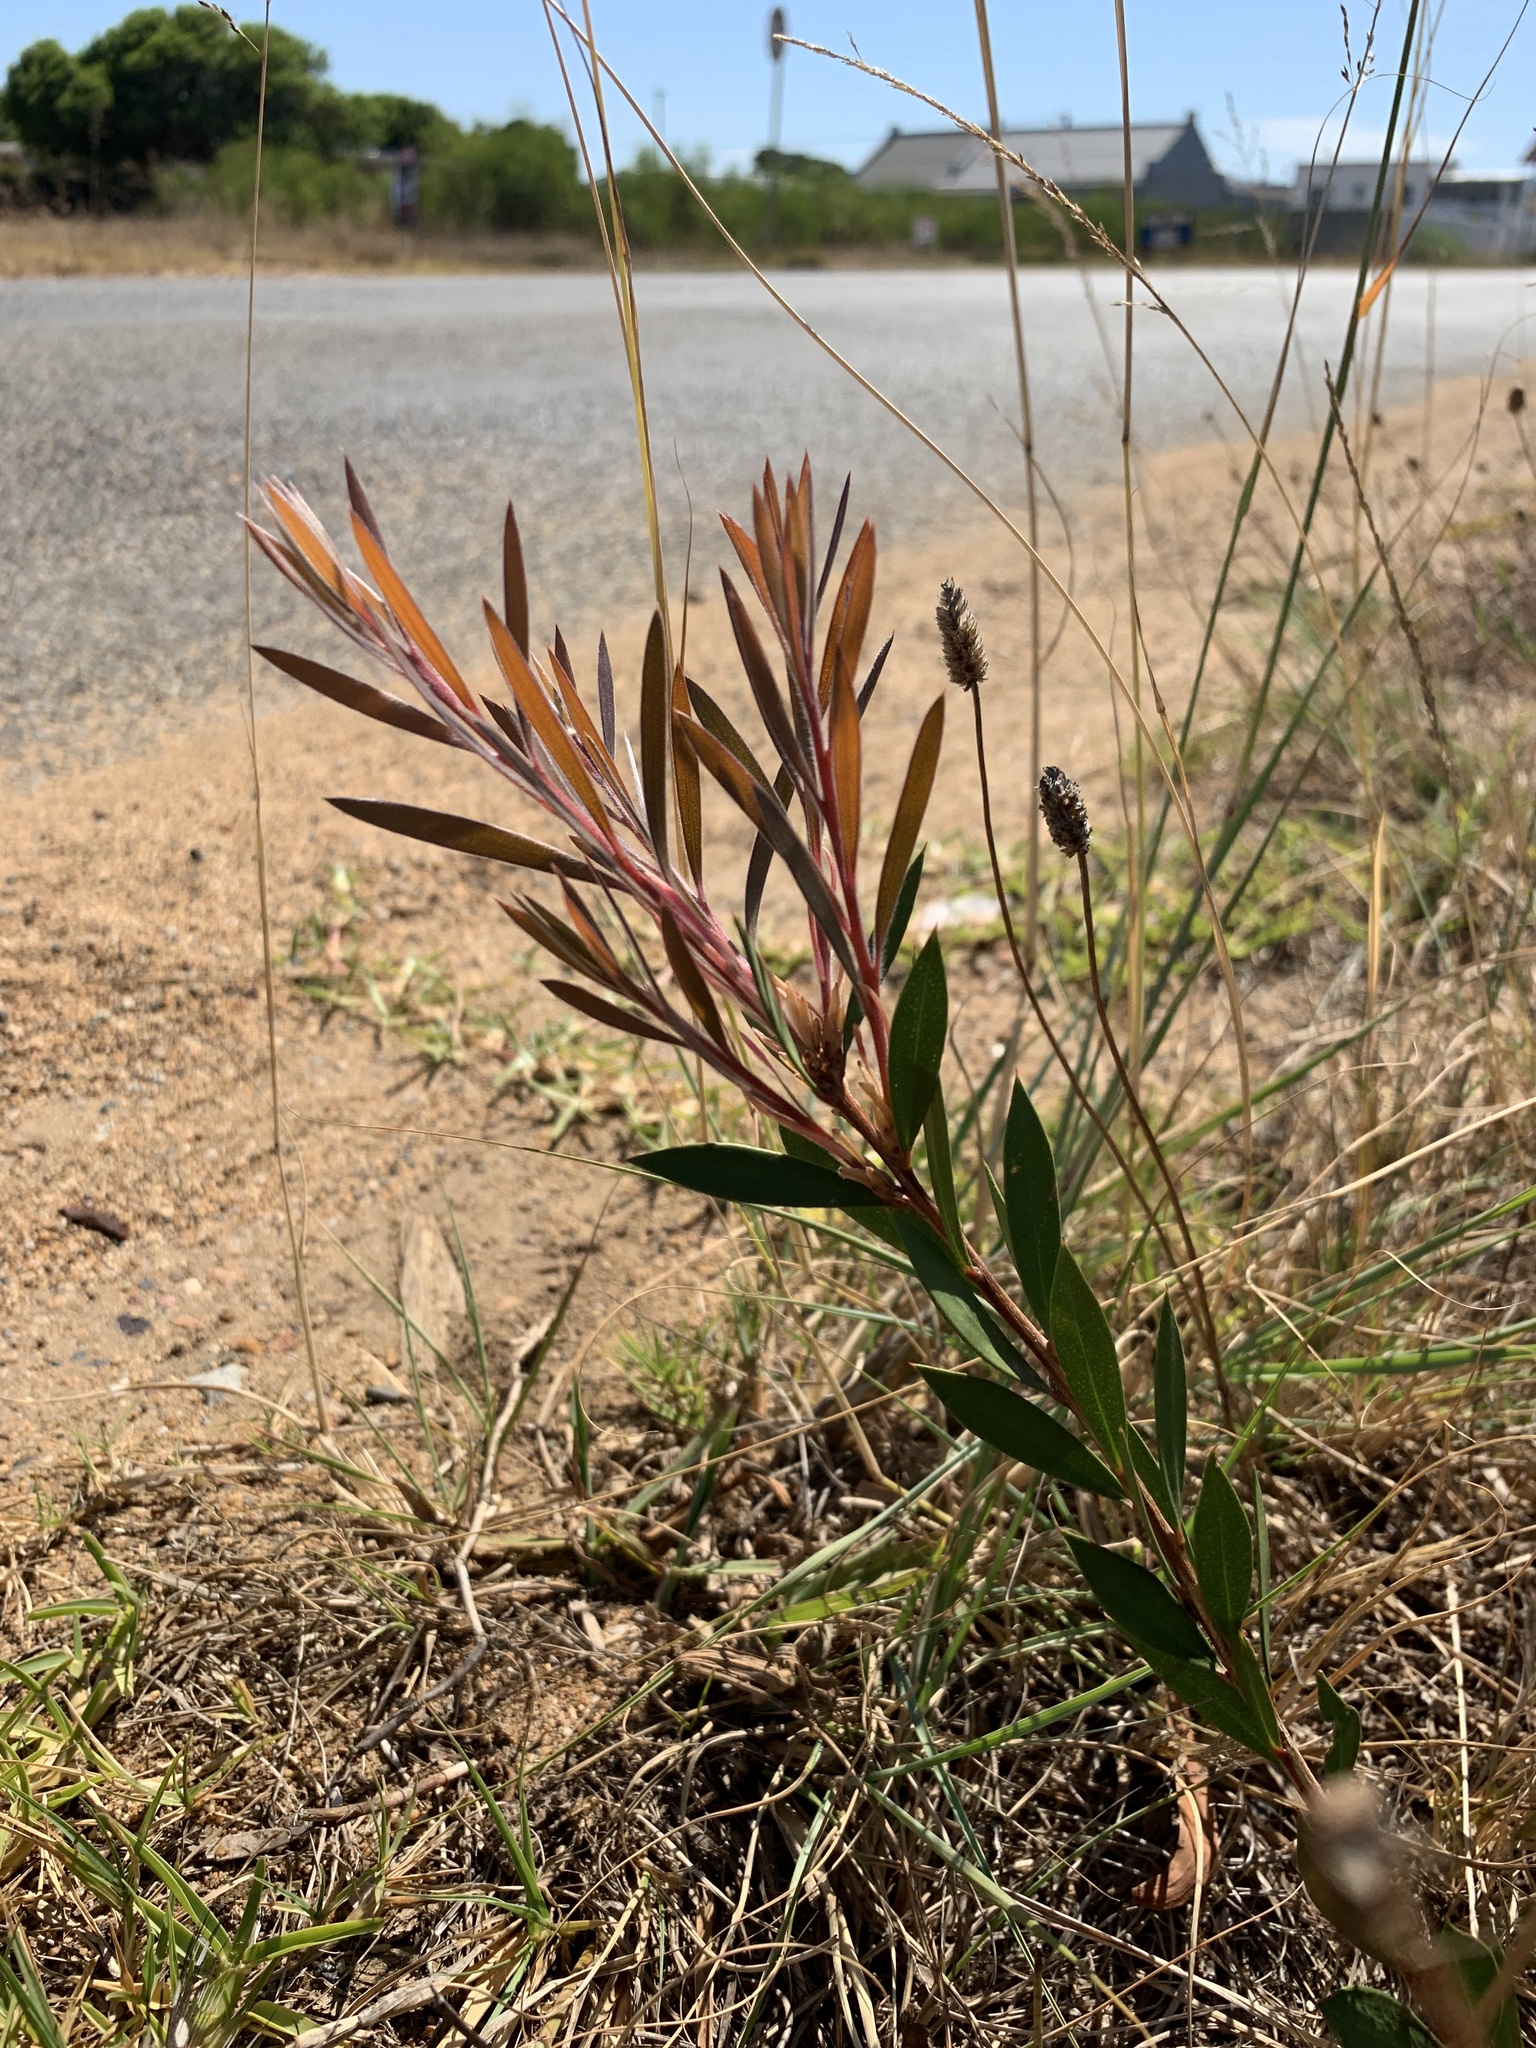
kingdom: Plantae
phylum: Tracheophyta
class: Magnoliopsida
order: Myrtales
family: Myrtaceae
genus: Callistemon
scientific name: Callistemon viminalis
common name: Drooping bottlebrush
